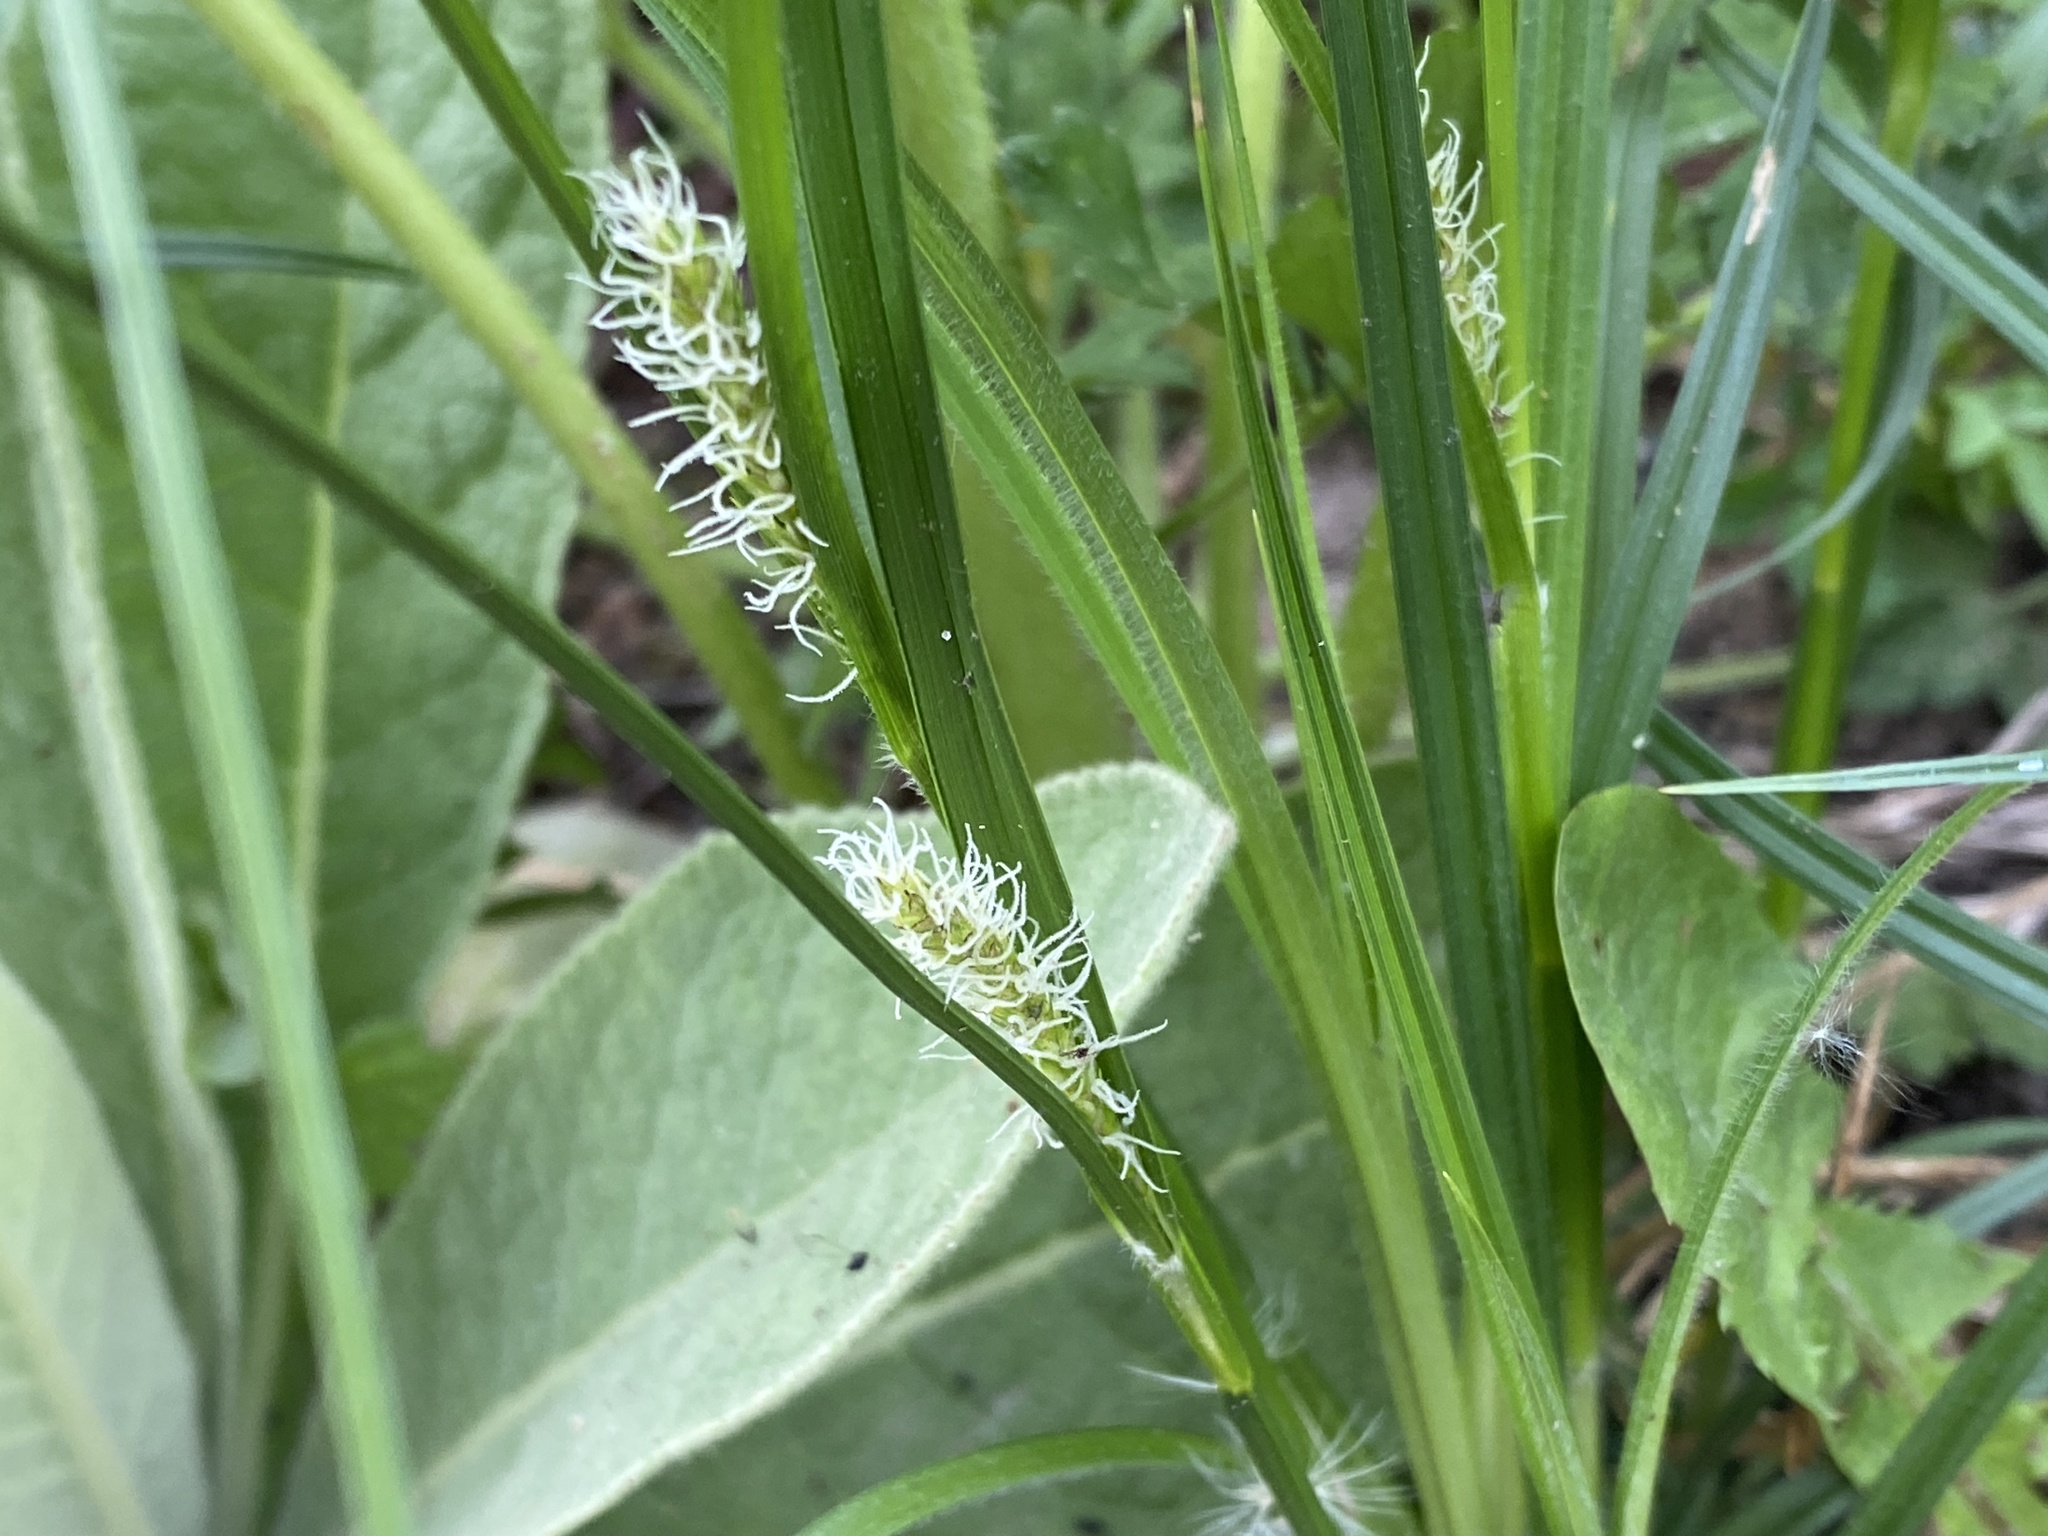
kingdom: Plantae
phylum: Tracheophyta
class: Liliopsida
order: Poales
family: Cyperaceae
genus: Carex
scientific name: Carex hirta
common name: Hairy sedge
